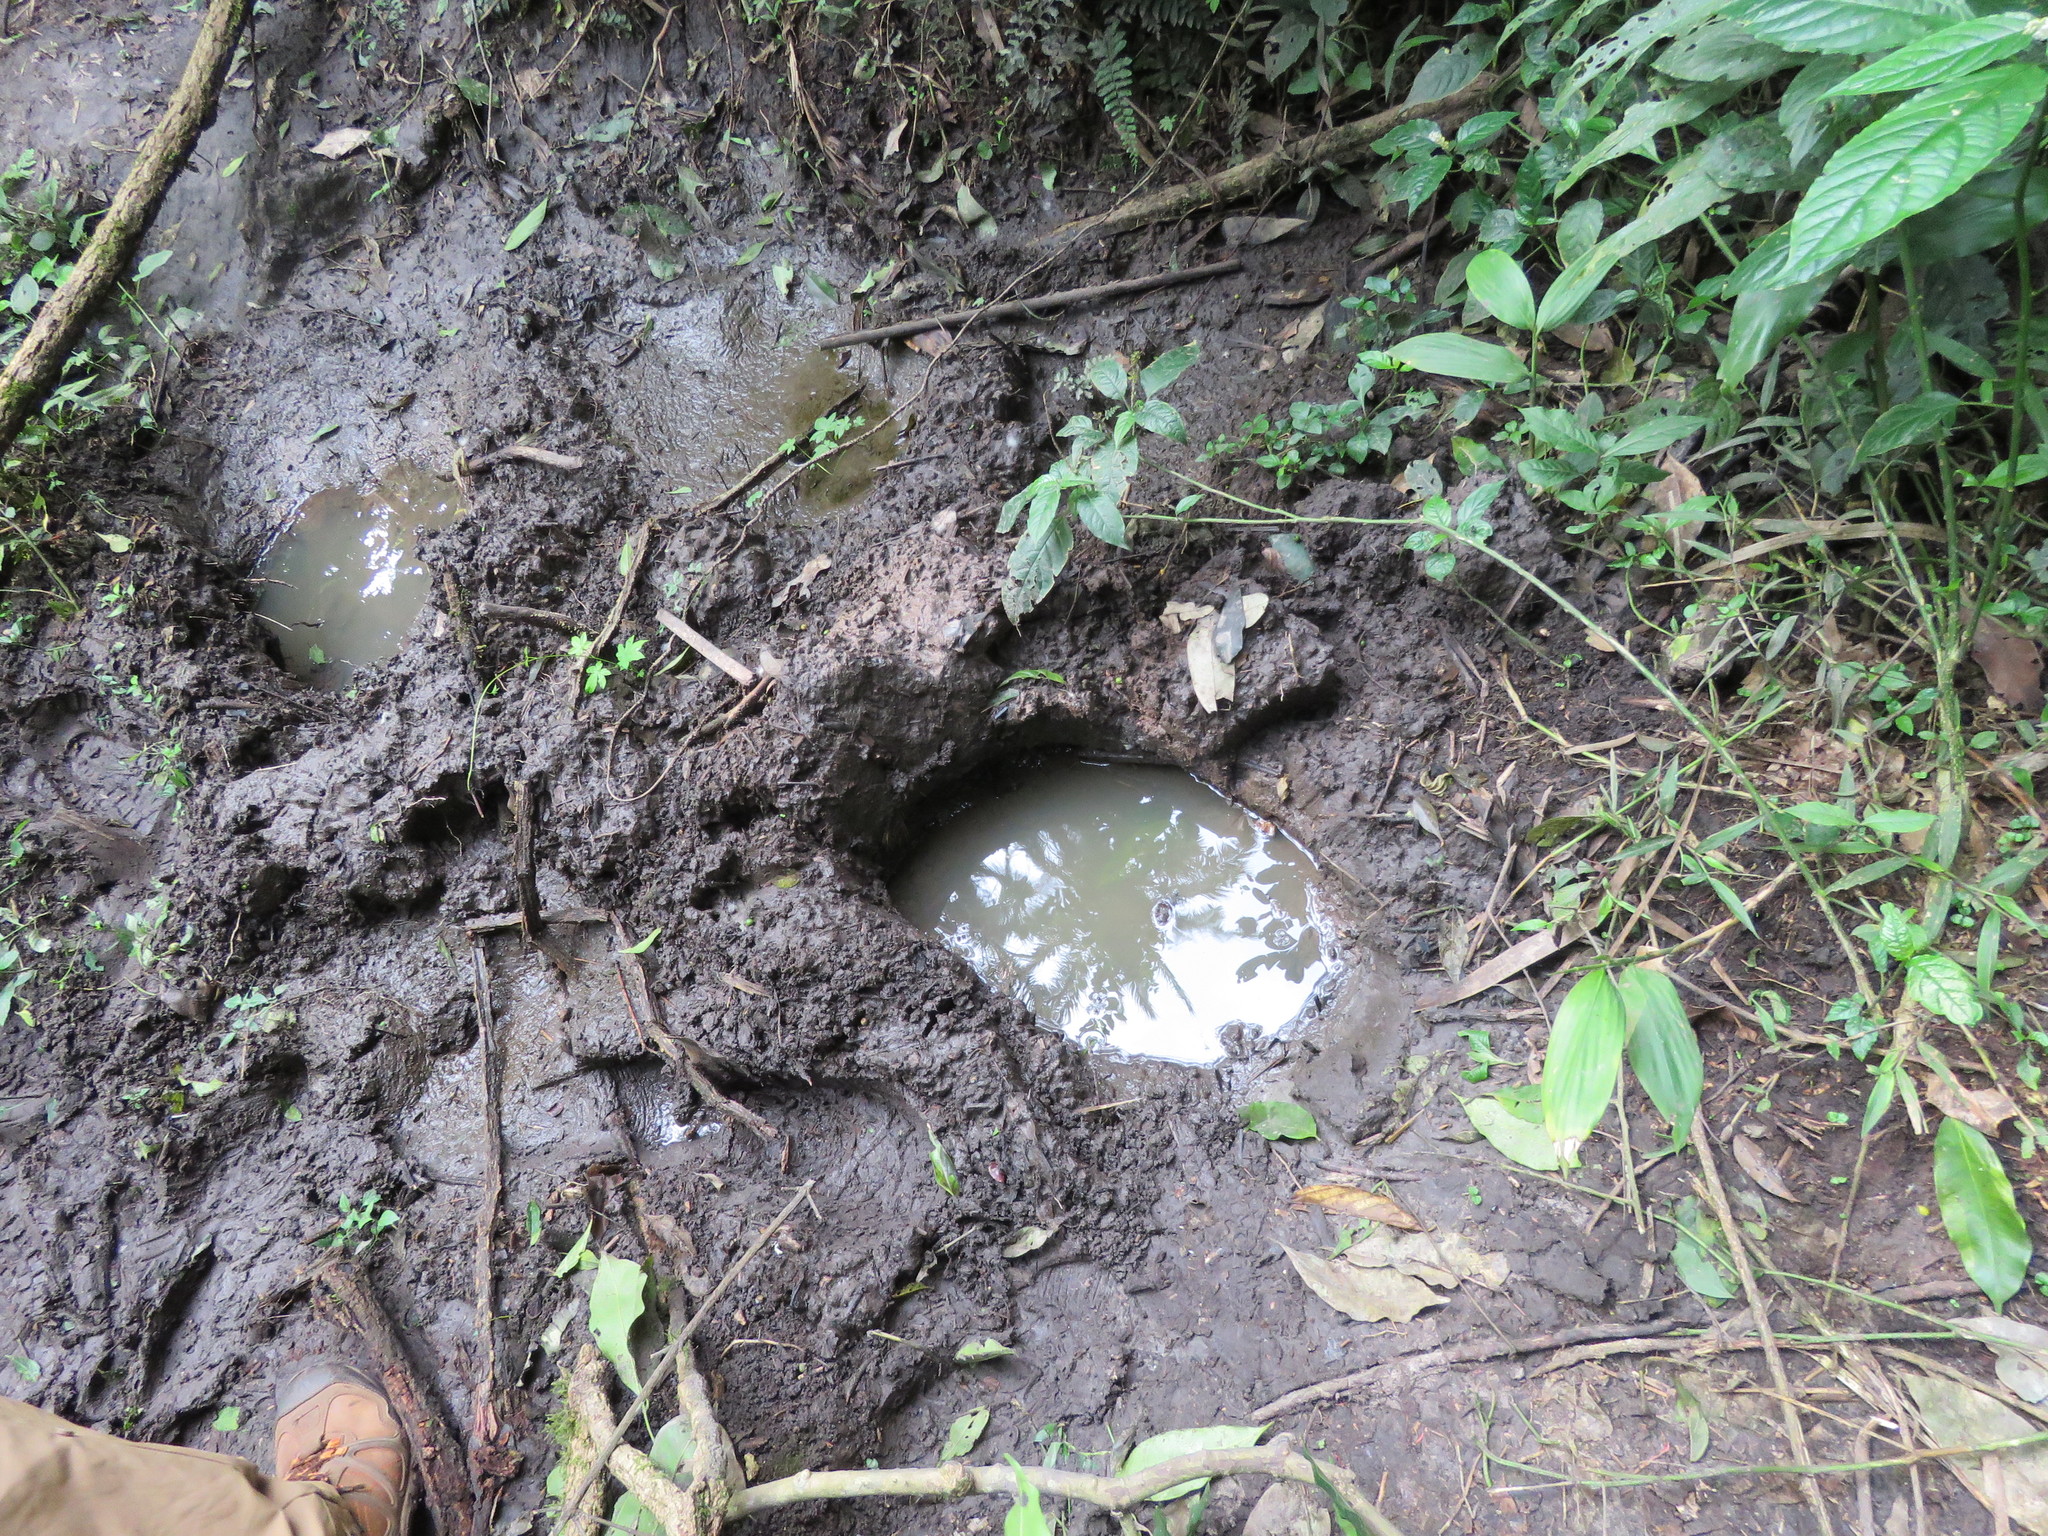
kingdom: Animalia
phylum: Chordata
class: Mammalia
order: Proboscidea
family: Elephantidae
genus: Loxodonta
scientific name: Loxodonta
